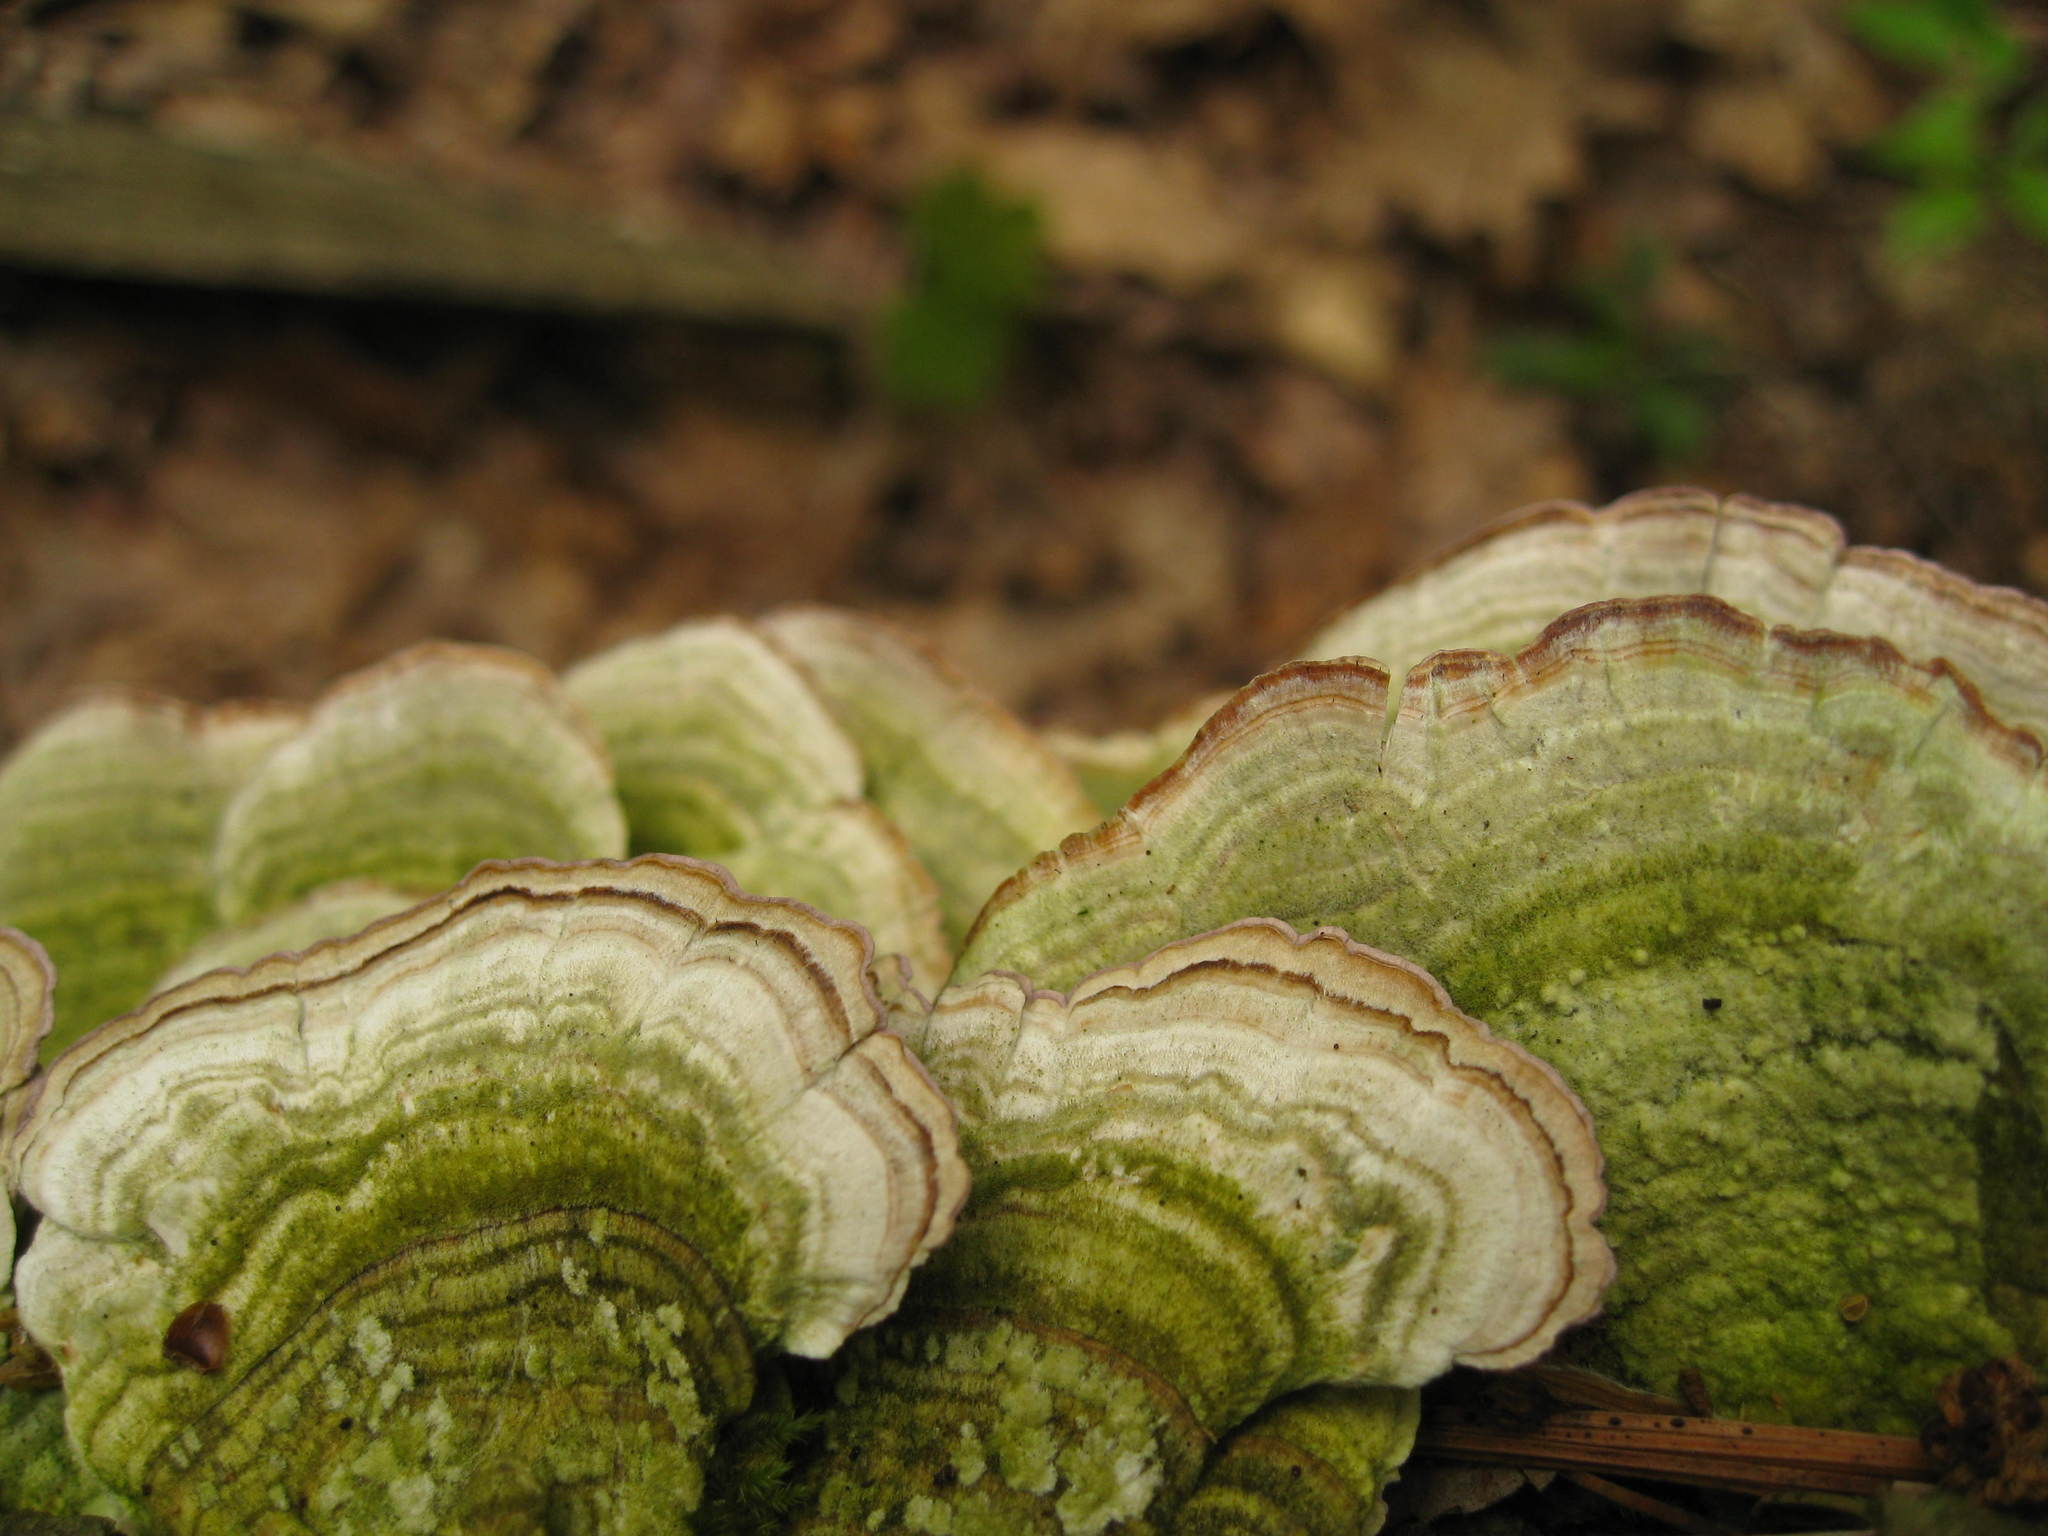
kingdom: Fungi
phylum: Basidiomycota
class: Agaricomycetes
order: Hymenochaetales
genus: Trichaptum
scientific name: Trichaptum biforme
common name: Violet-toothed polypore
